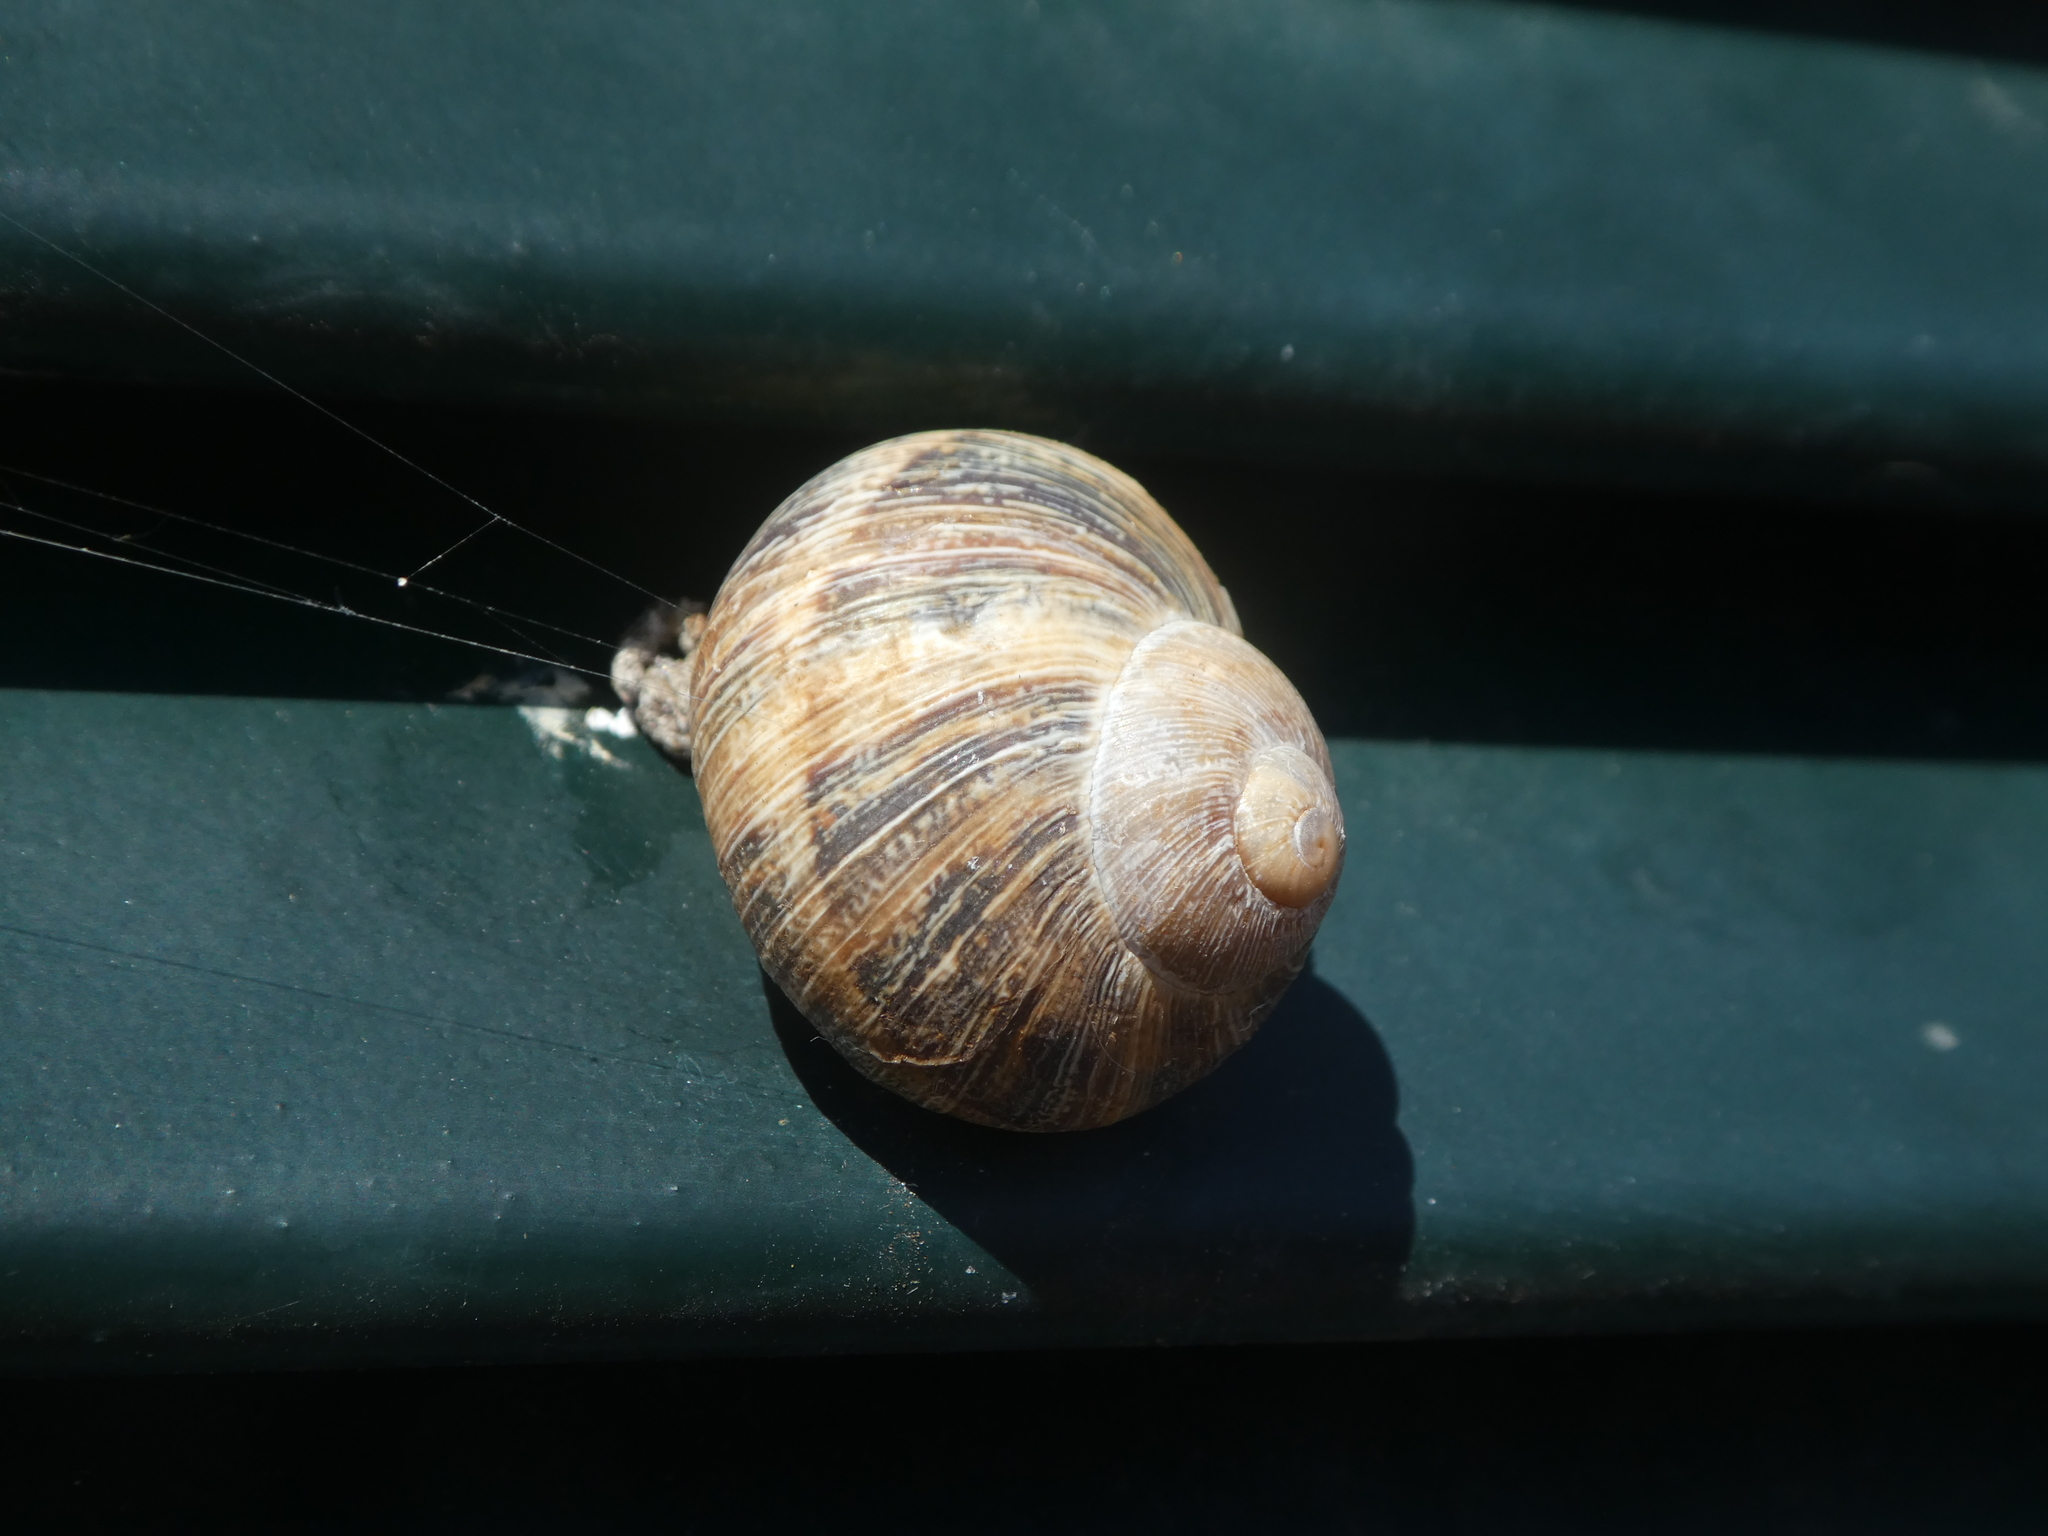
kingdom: Animalia
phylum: Mollusca
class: Gastropoda
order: Stylommatophora
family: Helicidae
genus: Cornu
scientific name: Cornu aspersum
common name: Brown garden snail
